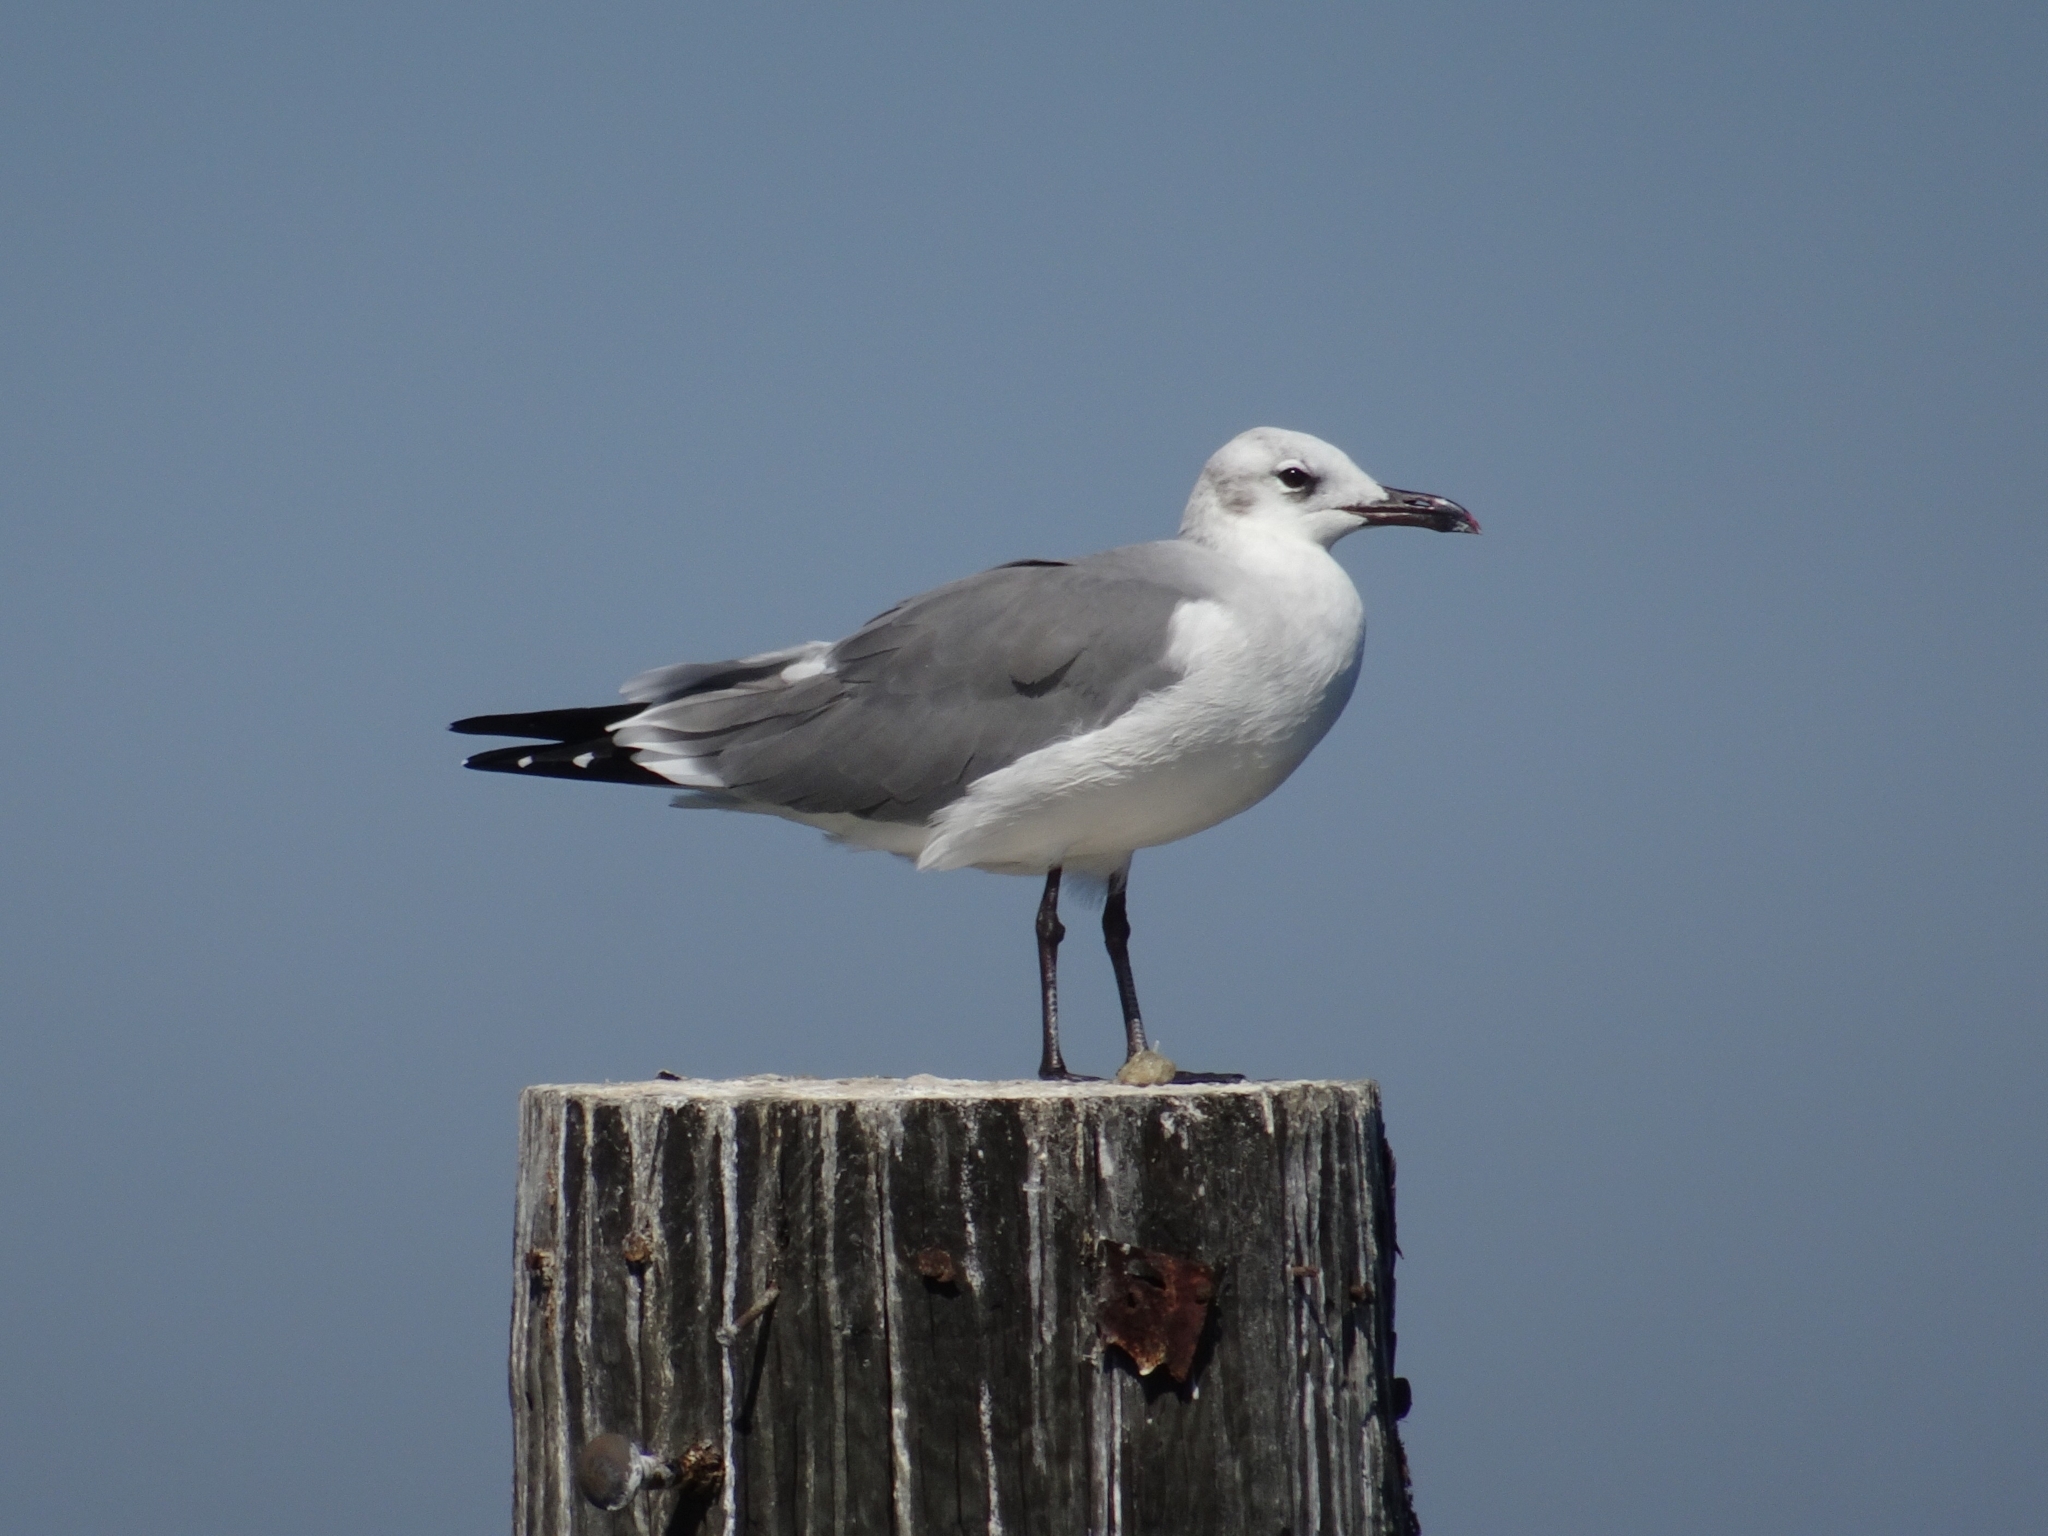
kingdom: Animalia
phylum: Chordata
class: Aves
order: Charadriiformes
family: Laridae
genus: Leucophaeus
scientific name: Leucophaeus atricilla
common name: Laughing gull
